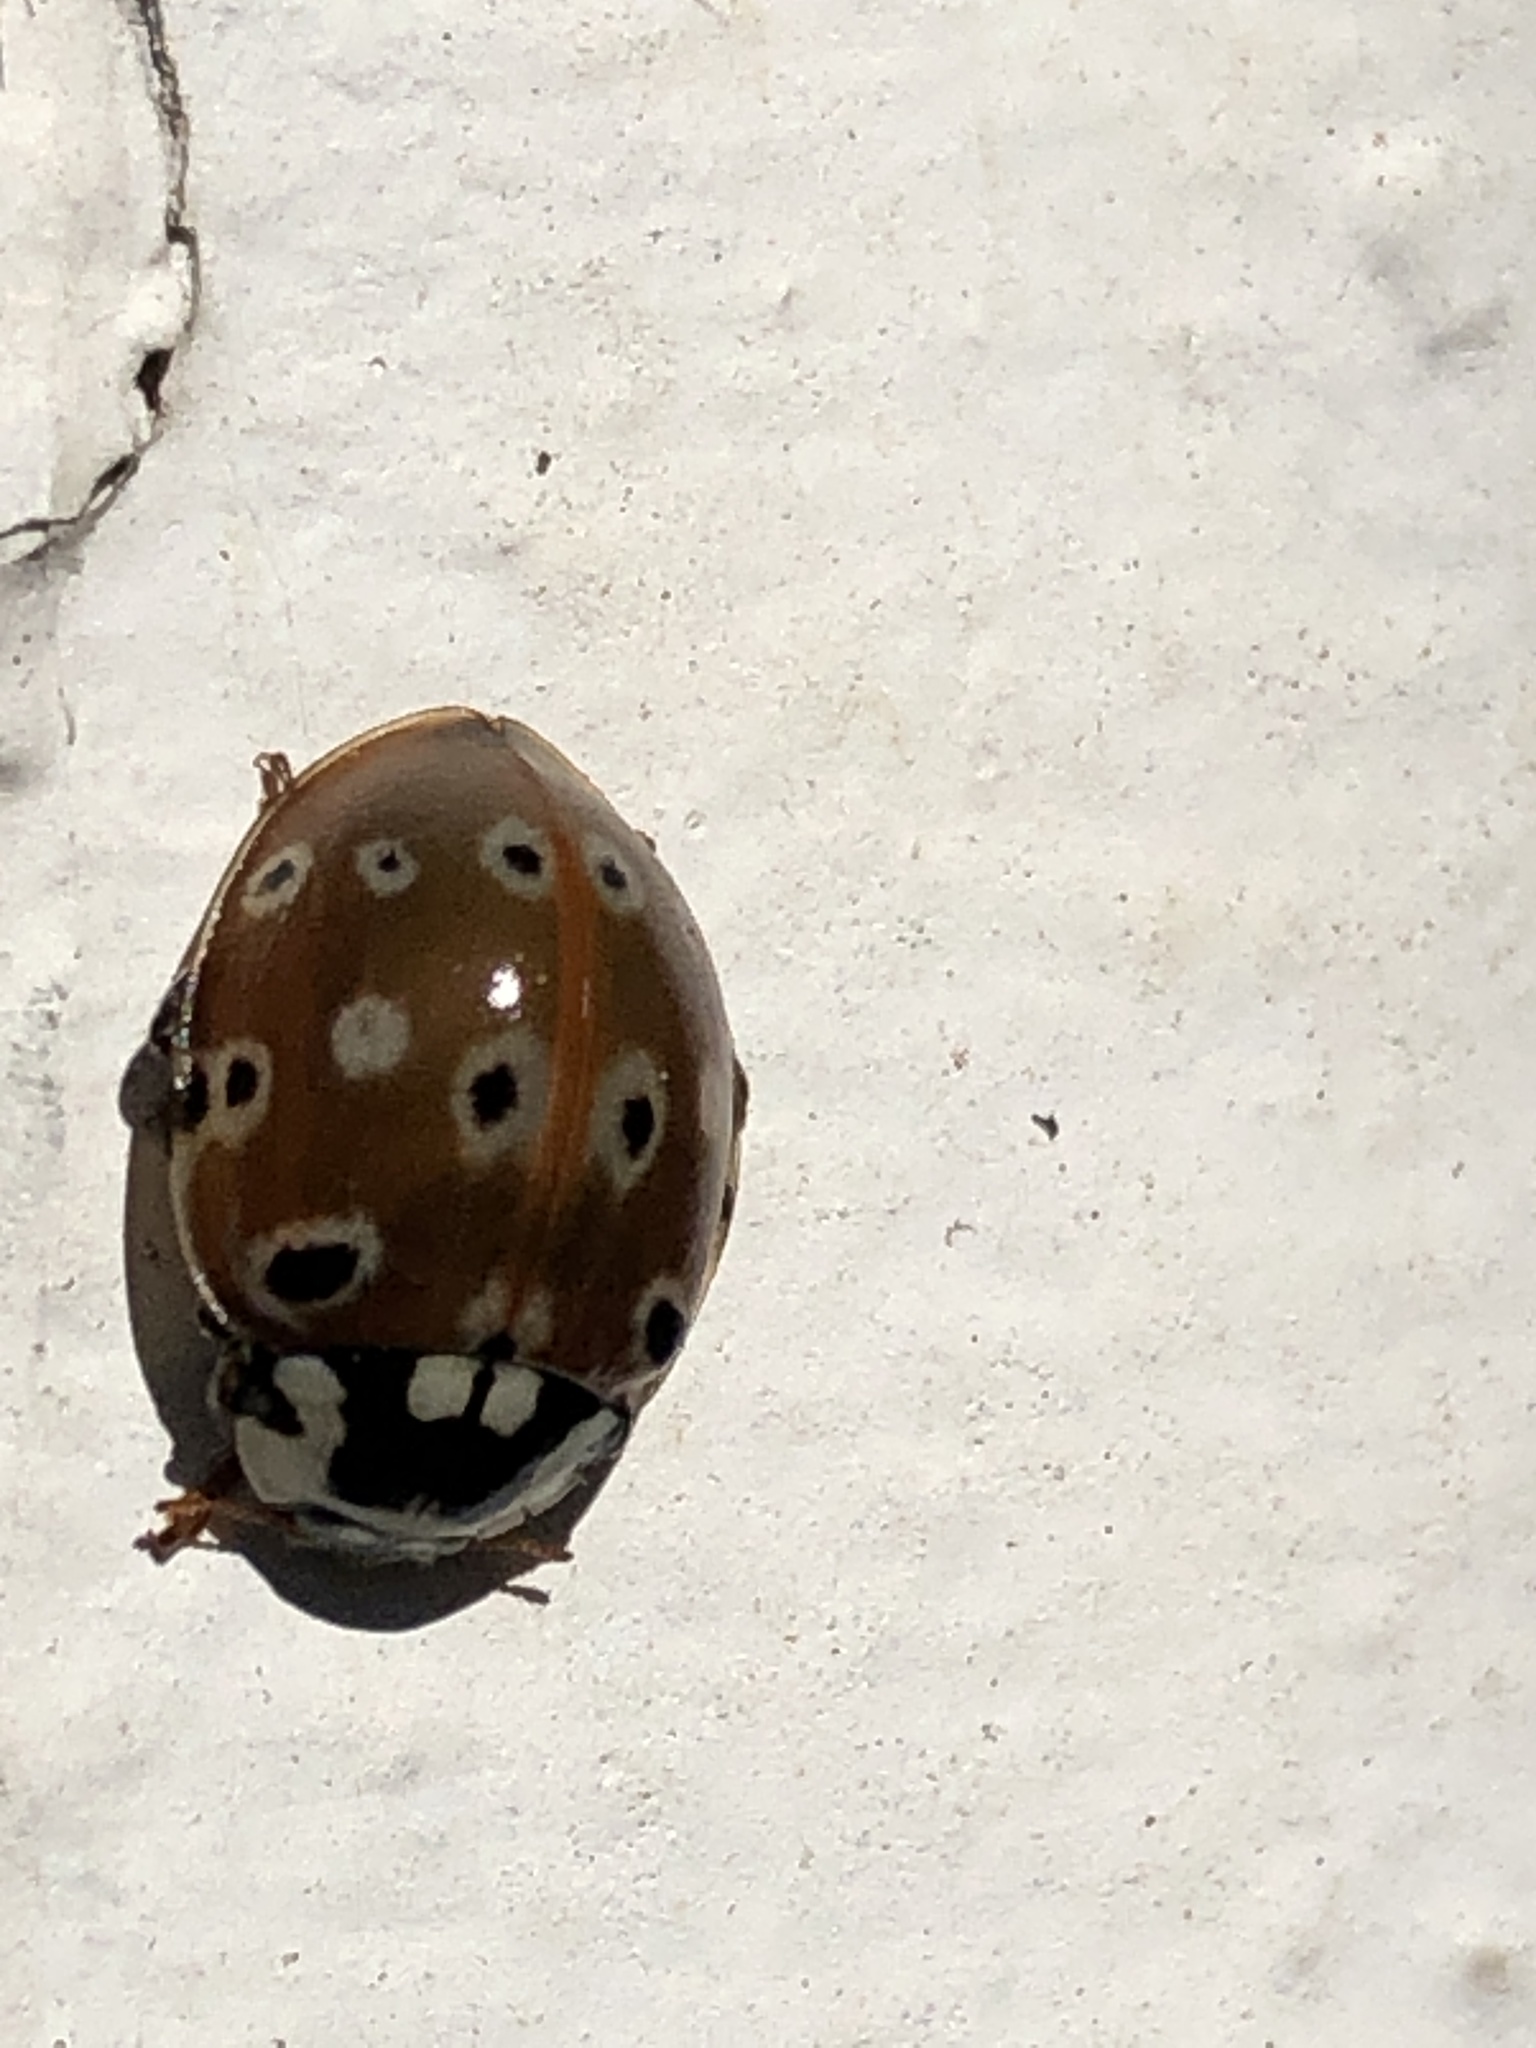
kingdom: Animalia
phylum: Arthropoda
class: Insecta
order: Coleoptera
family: Coccinellidae
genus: Anatis
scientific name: Anatis mali
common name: Eye-spotted lady beetle
